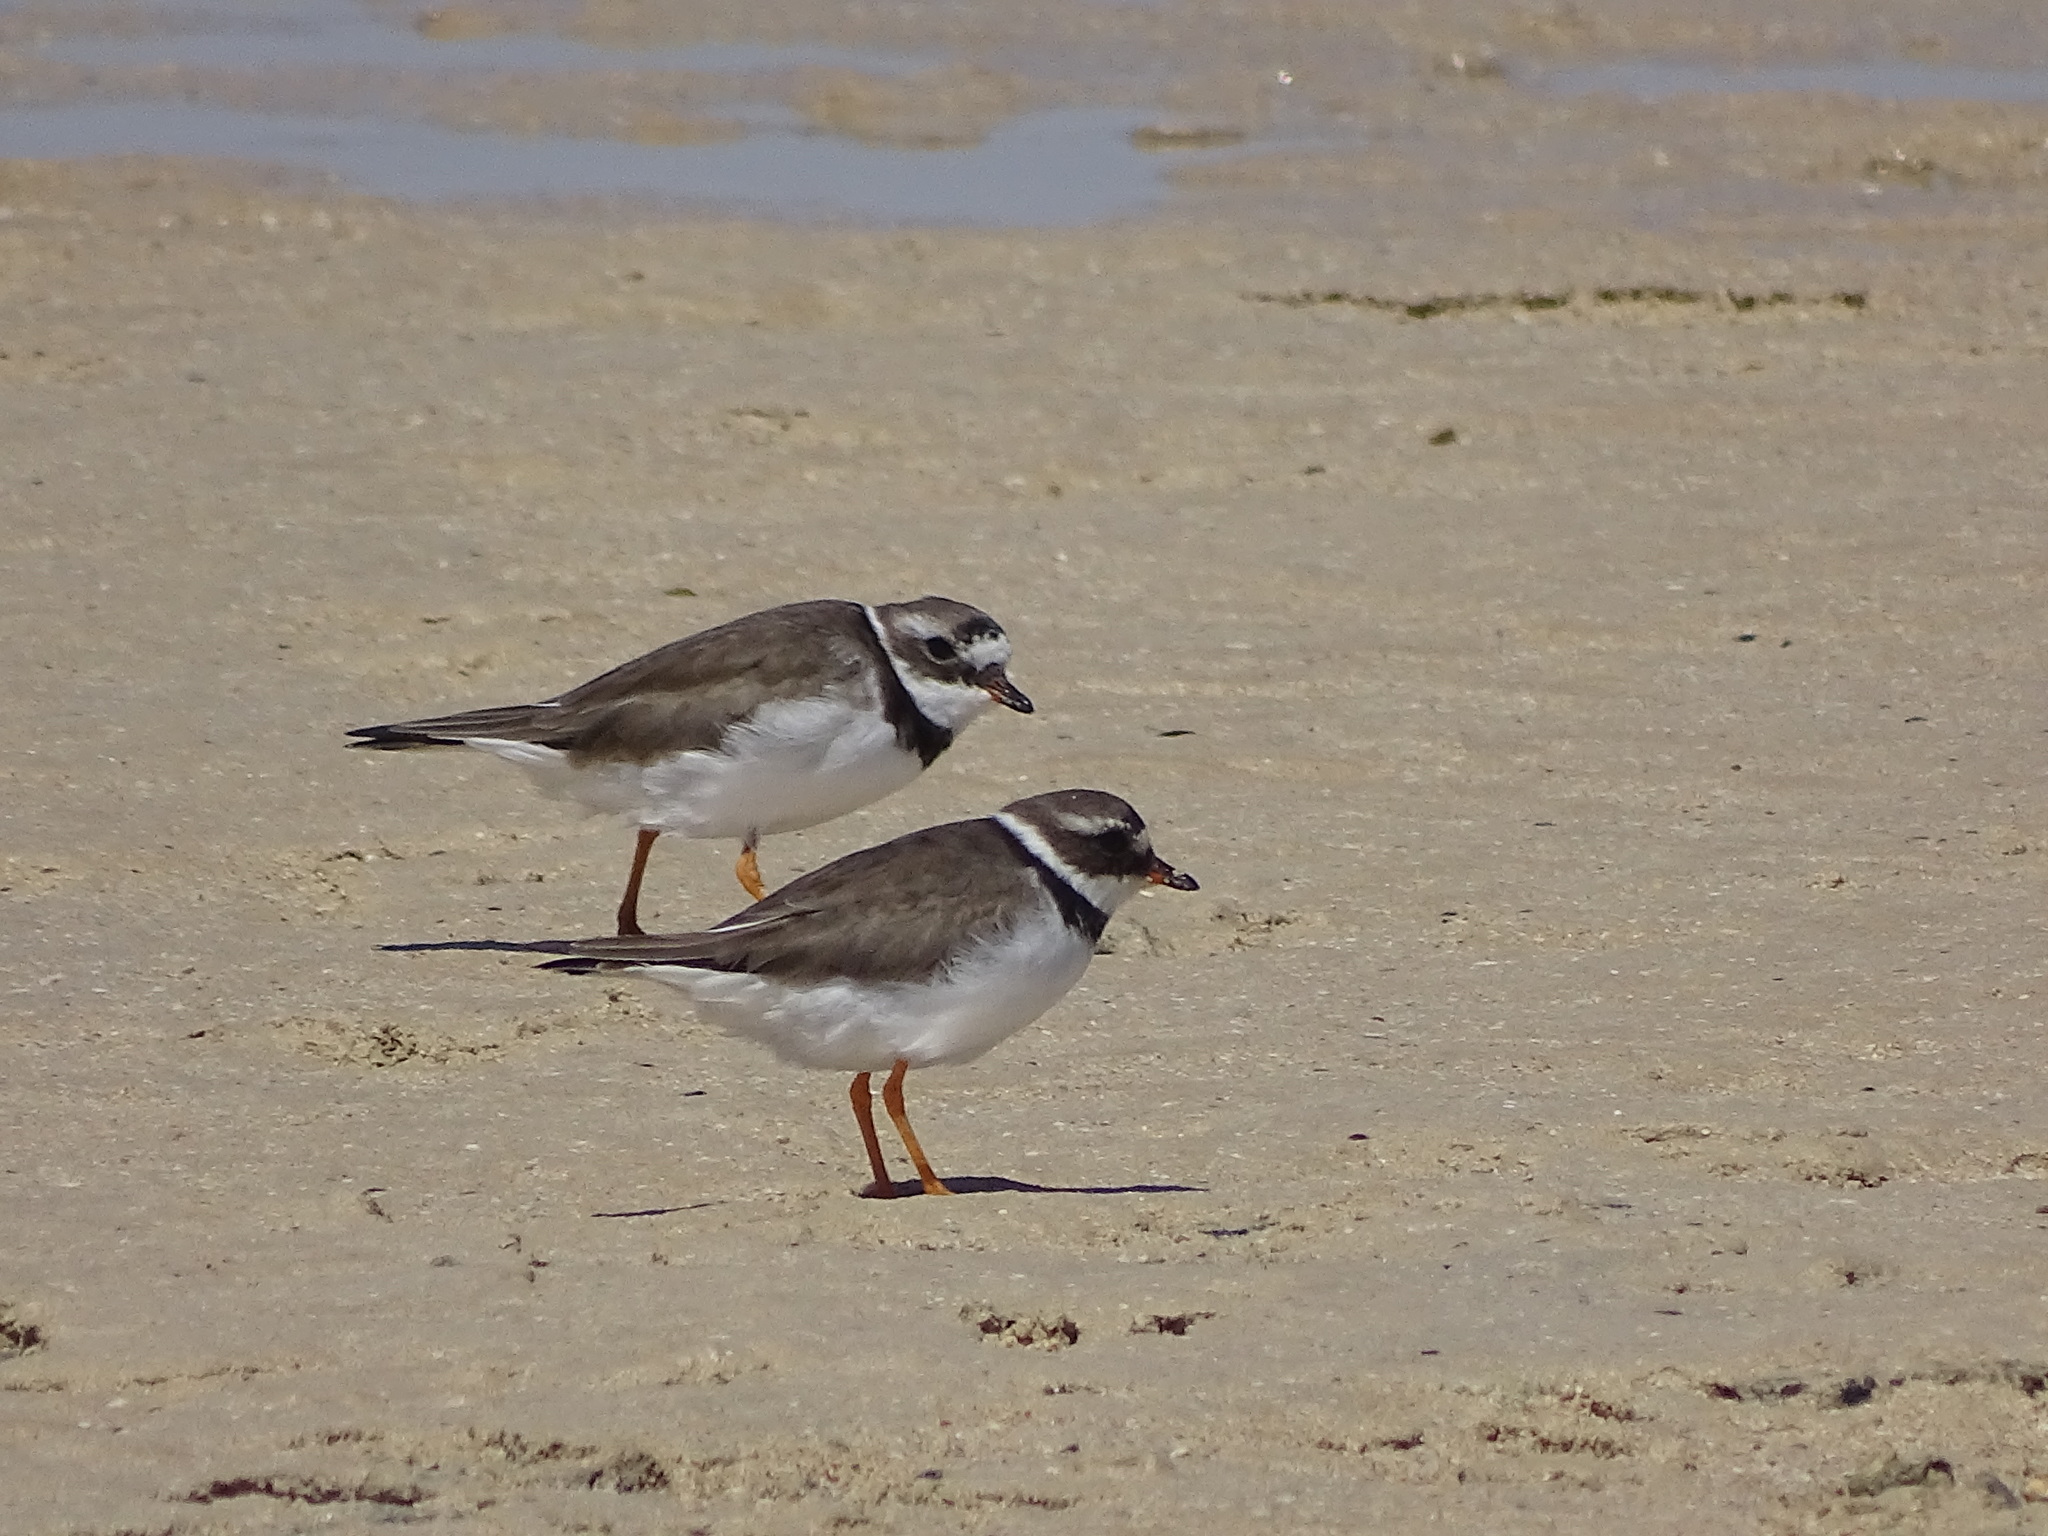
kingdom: Animalia
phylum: Chordata
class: Aves
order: Charadriiformes
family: Charadriidae
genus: Charadrius
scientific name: Charadrius hiaticula
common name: Common ringed plover
